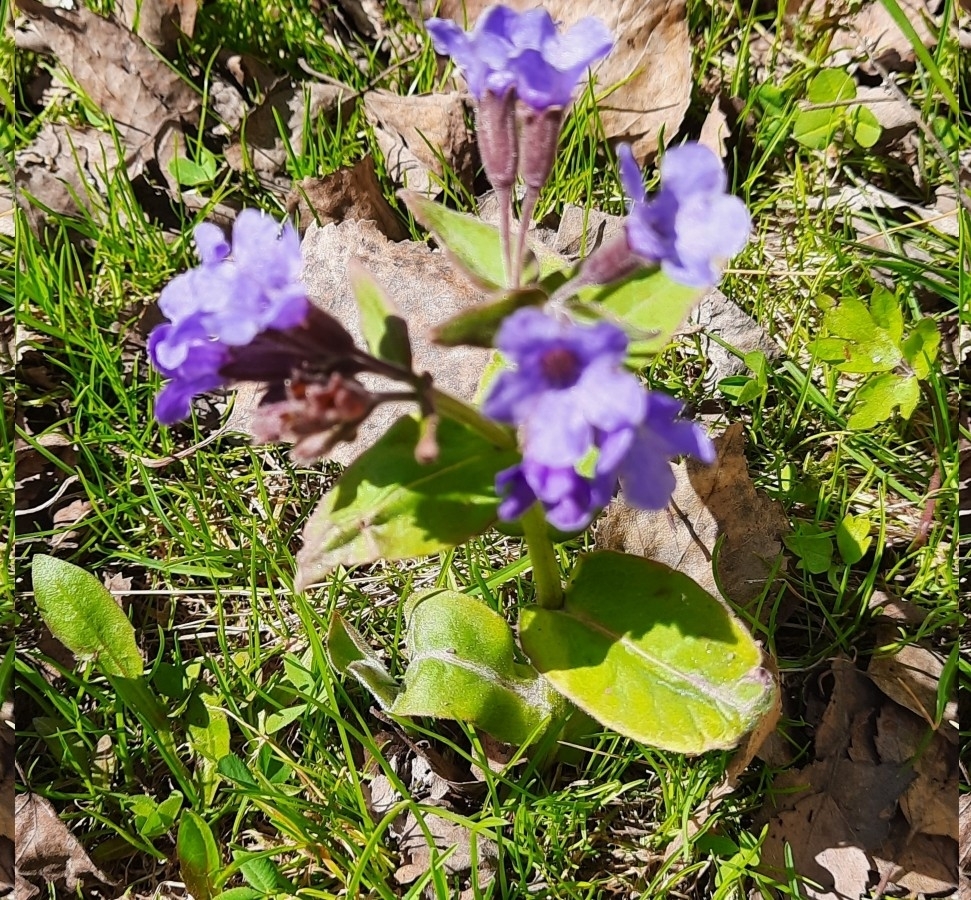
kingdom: Plantae
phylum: Tracheophyta
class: Magnoliopsida
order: Boraginales
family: Boraginaceae
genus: Pulmonaria
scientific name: Pulmonaria mollis
